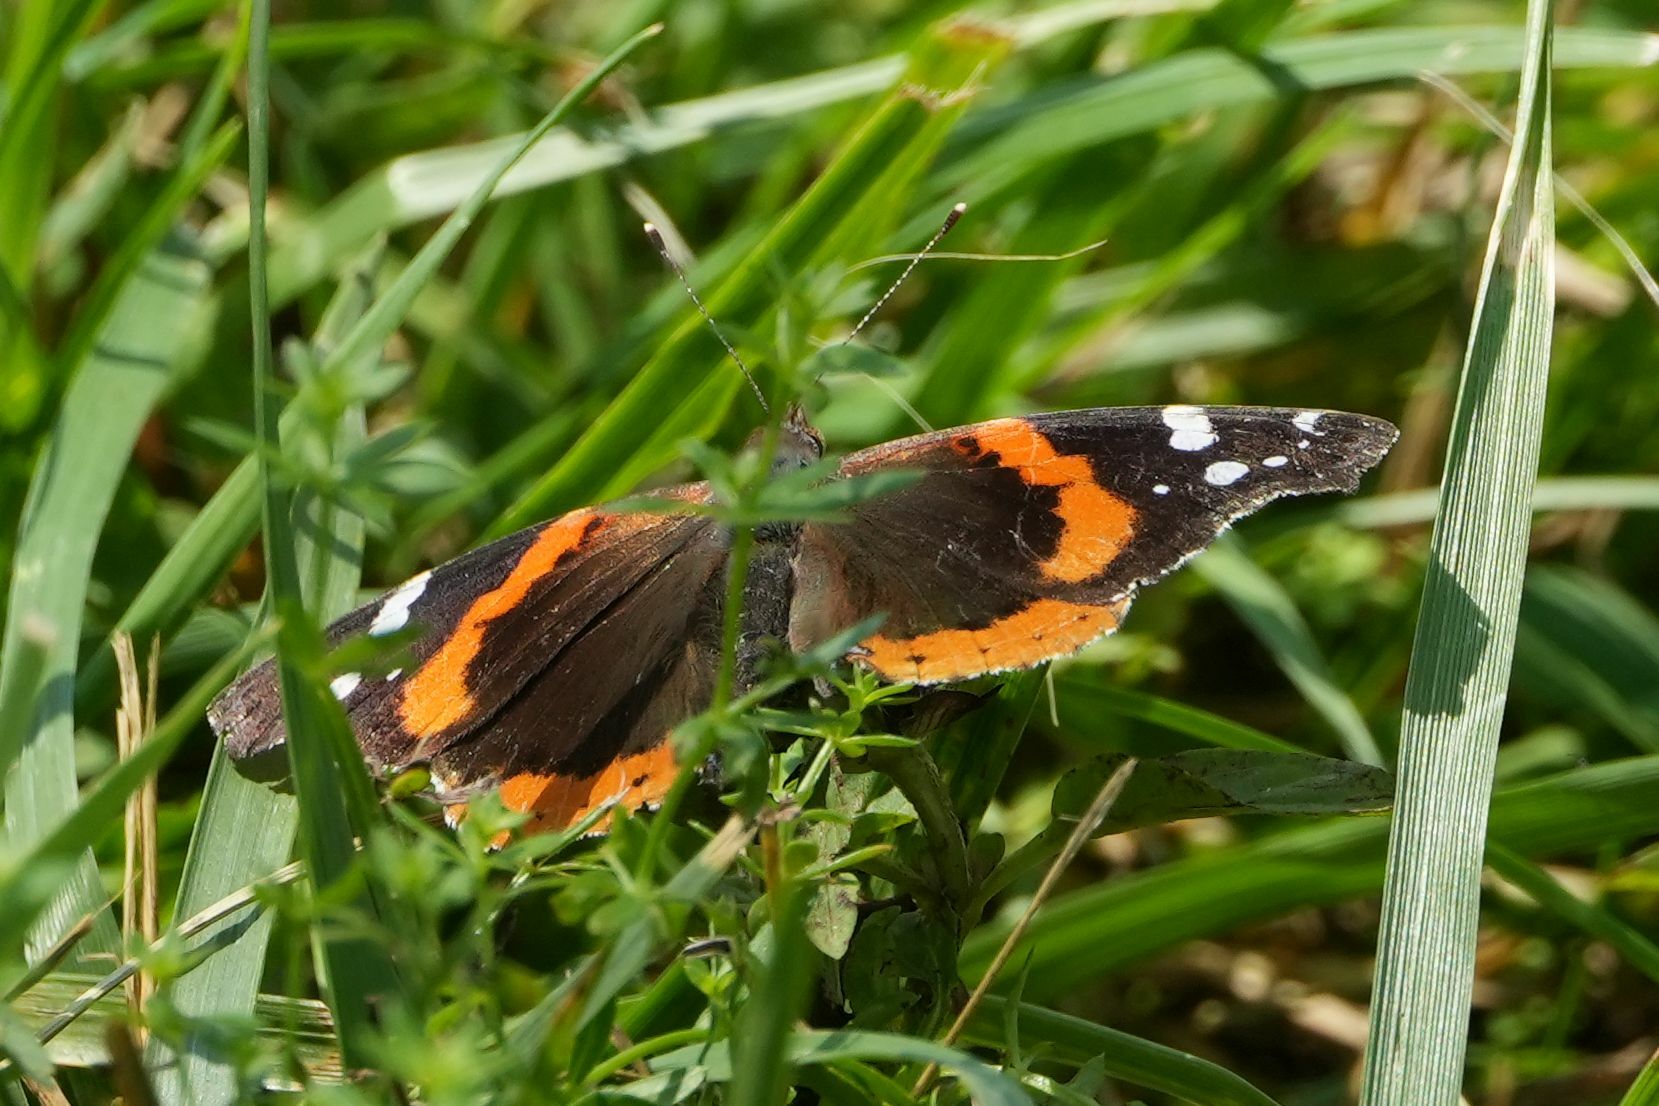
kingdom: Animalia
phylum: Arthropoda
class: Insecta
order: Lepidoptera
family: Nymphalidae
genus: Vanessa
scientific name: Vanessa atalanta
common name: Red admiral
